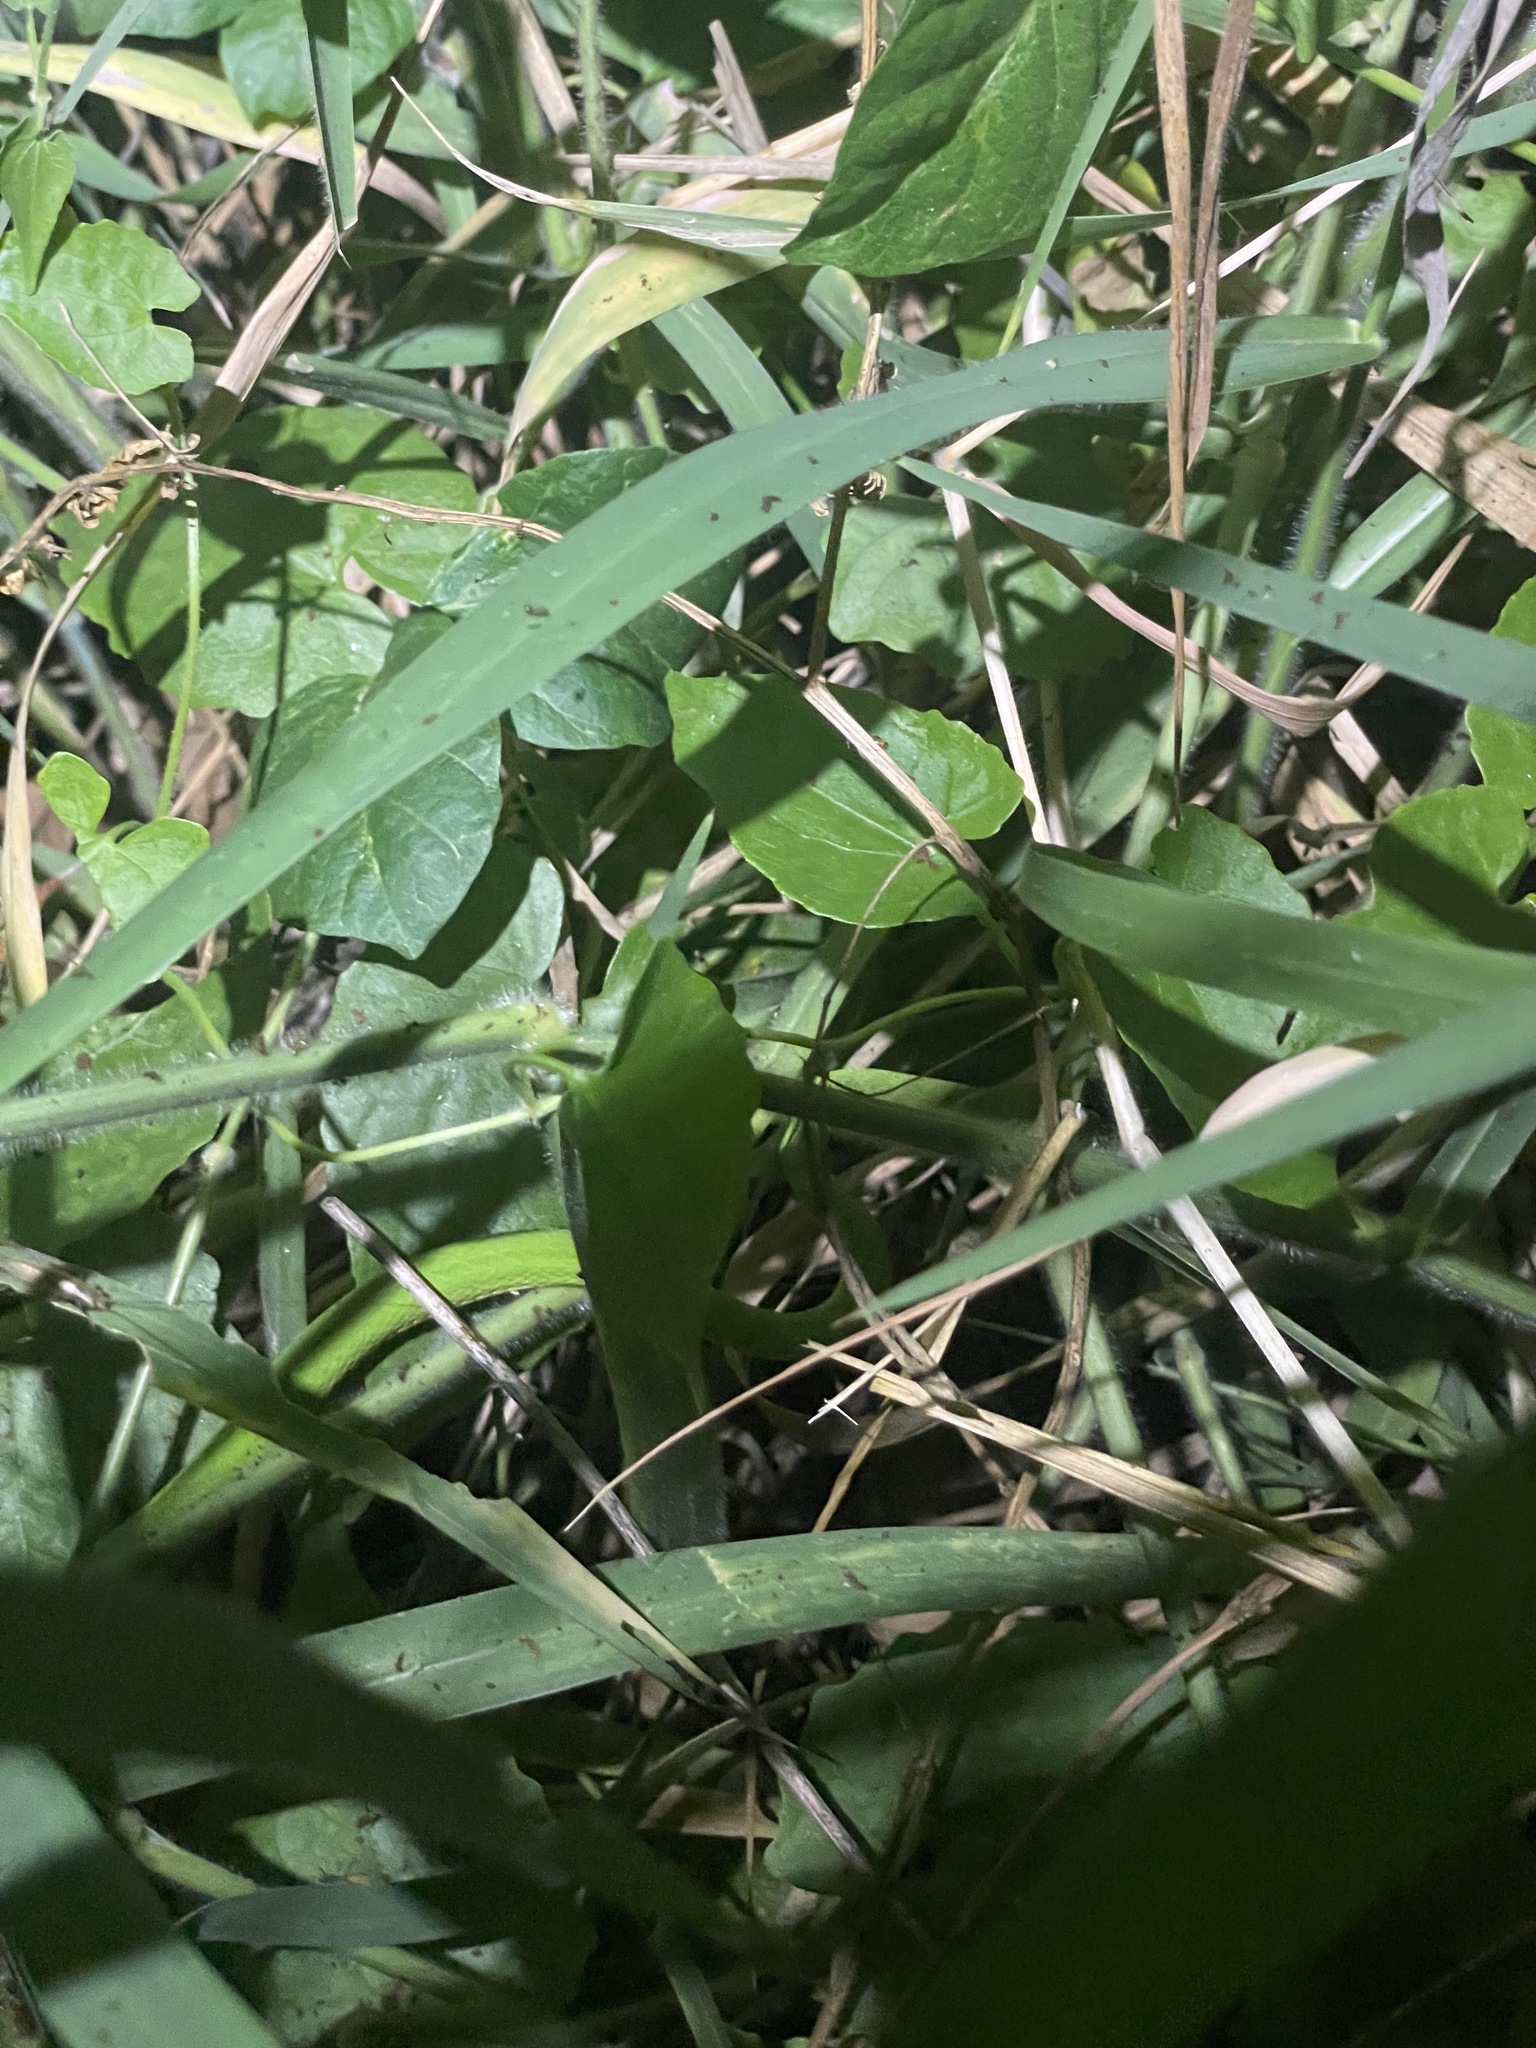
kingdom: Animalia
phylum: Chordata
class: Squamata
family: Viperidae
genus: Trimeresurus
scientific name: Trimeresurus albolabris
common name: White-lipped pitviper
